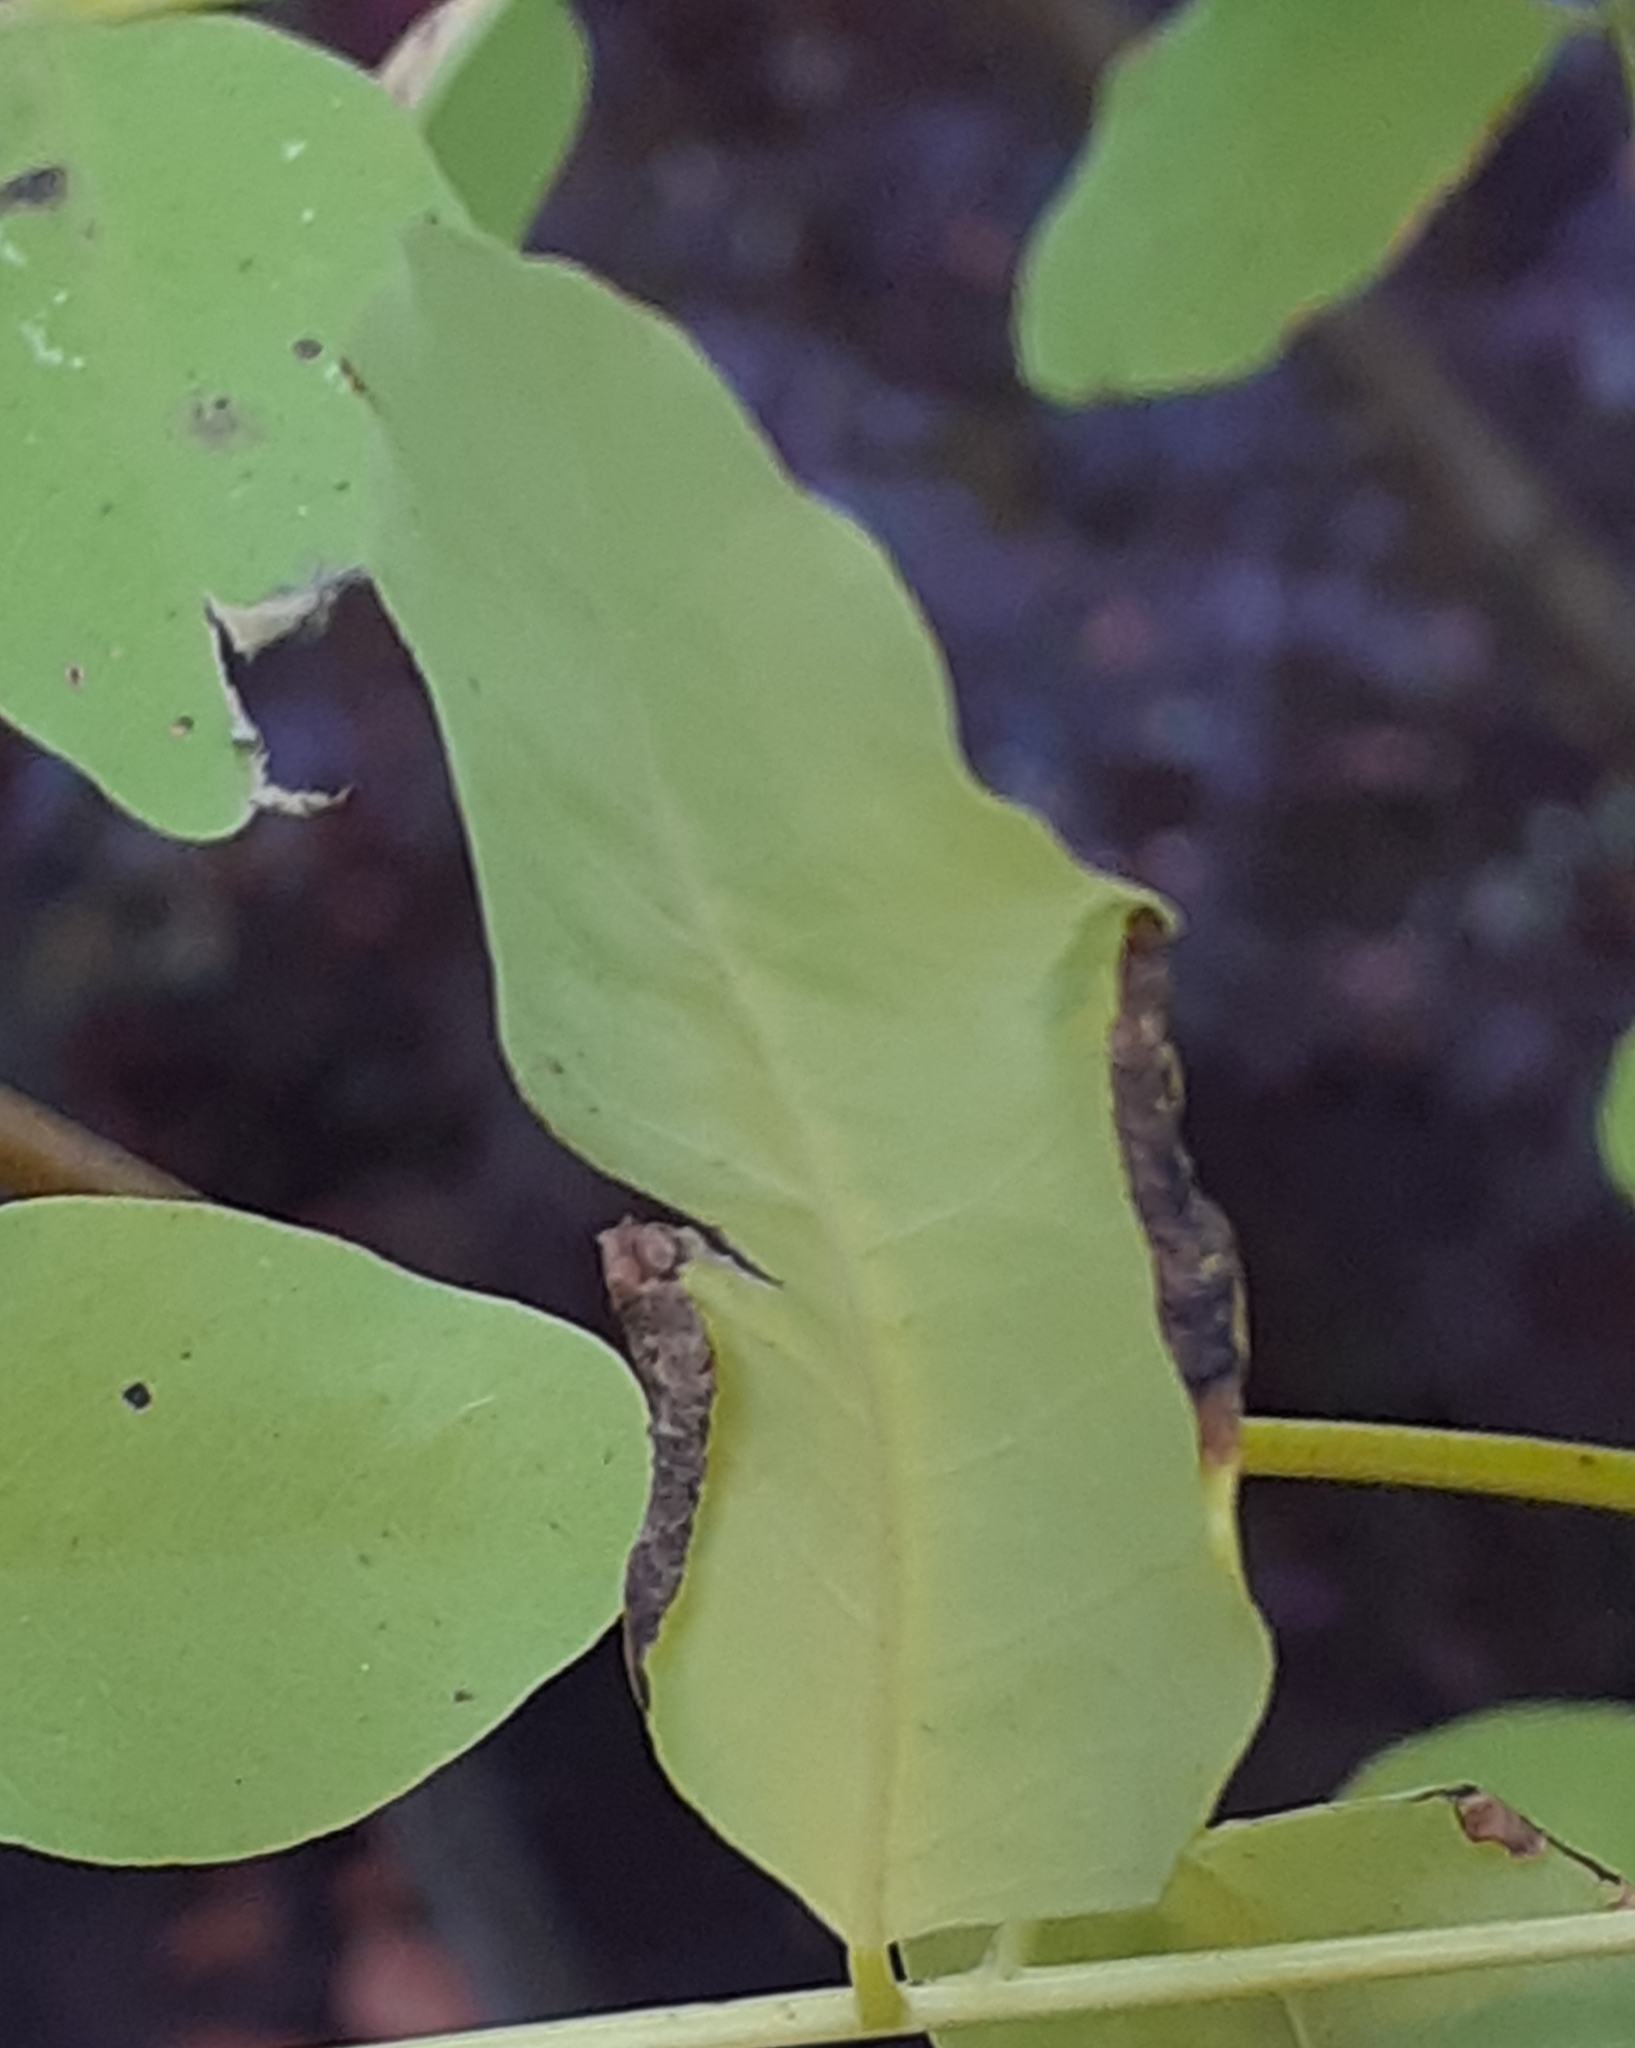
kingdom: Animalia
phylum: Arthropoda
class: Insecta
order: Diptera
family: Cecidomyiidae
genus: Obolodiplosis
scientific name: Obolodiplosis robiniae
